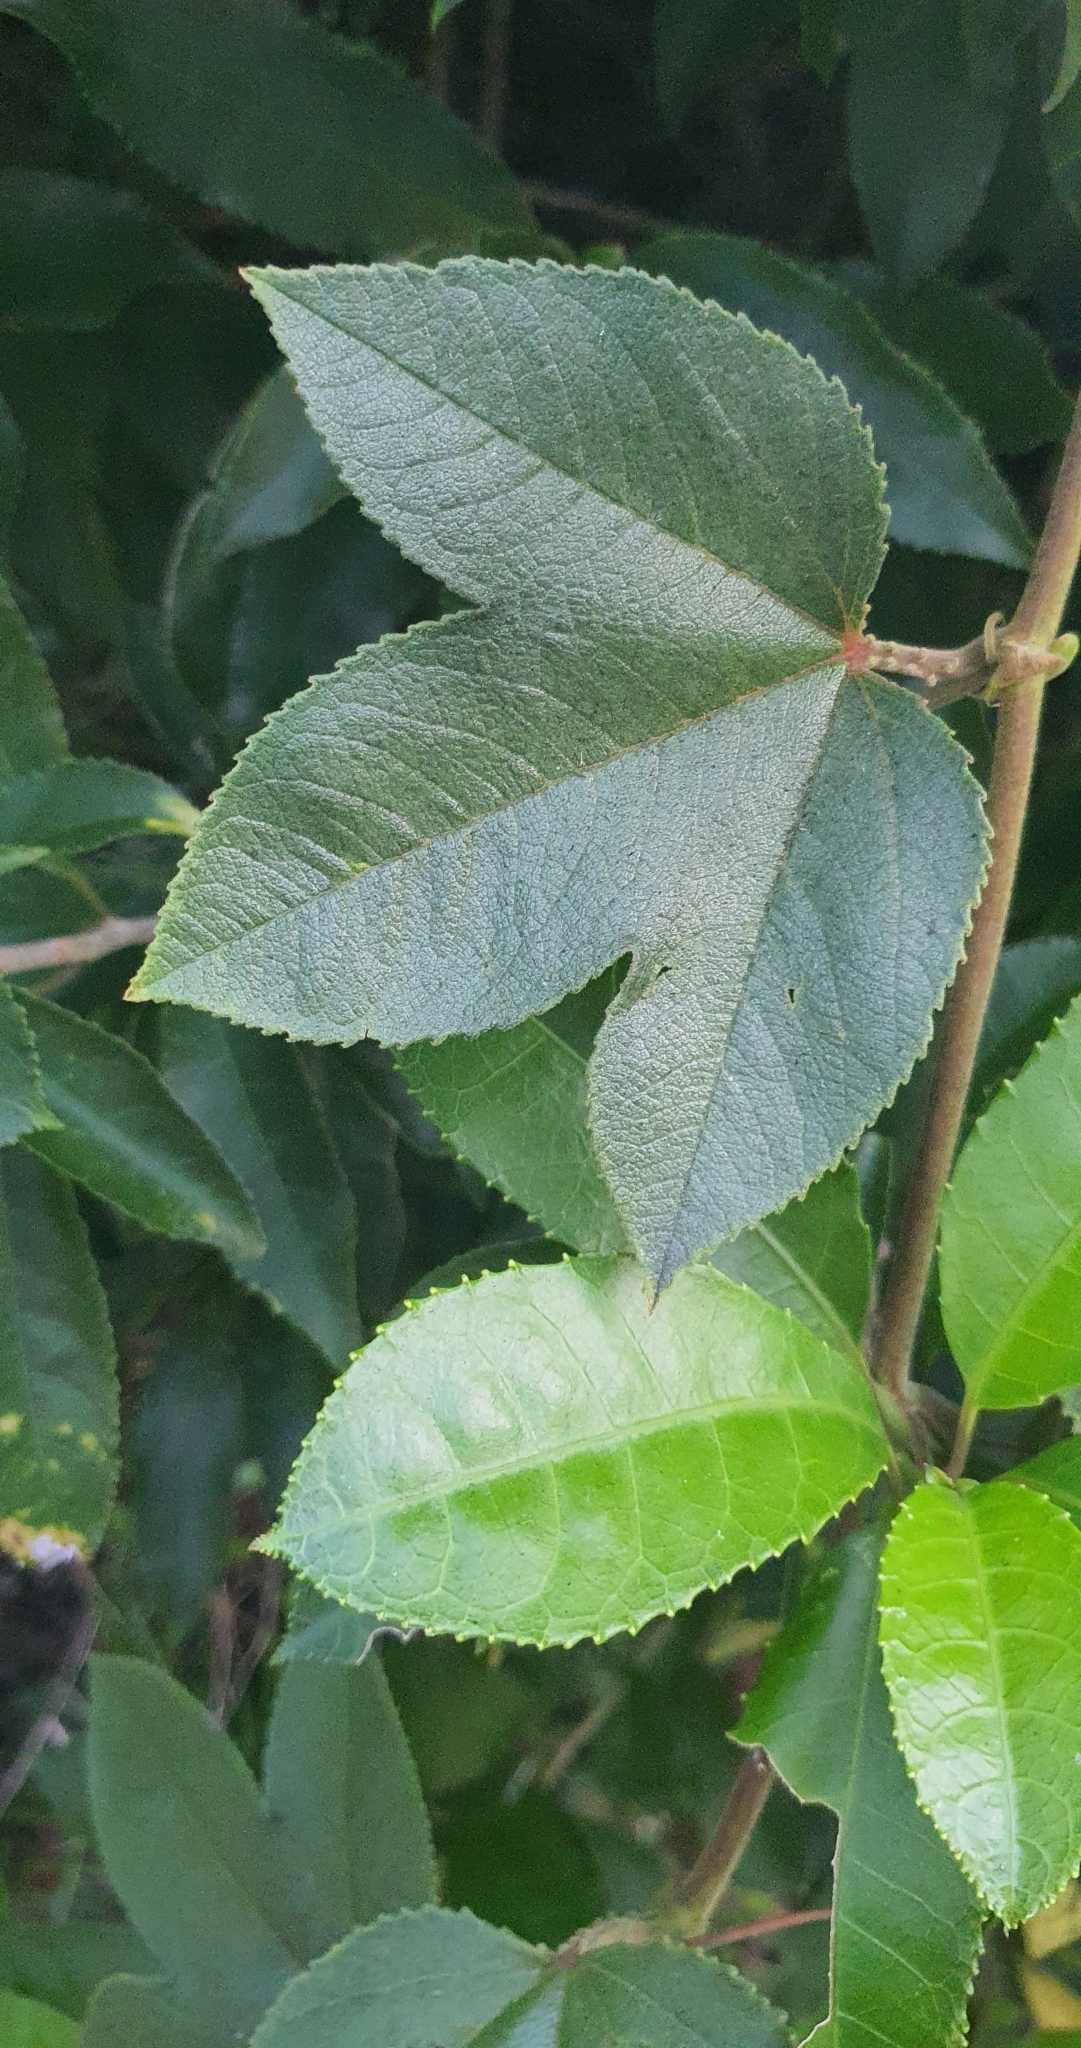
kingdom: Plantae
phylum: Tracheophyta
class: Magnoliopsida
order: Malpighiales
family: Passifloraceae
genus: Passiflora
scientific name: Passiflora tripartita
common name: Banana poka
